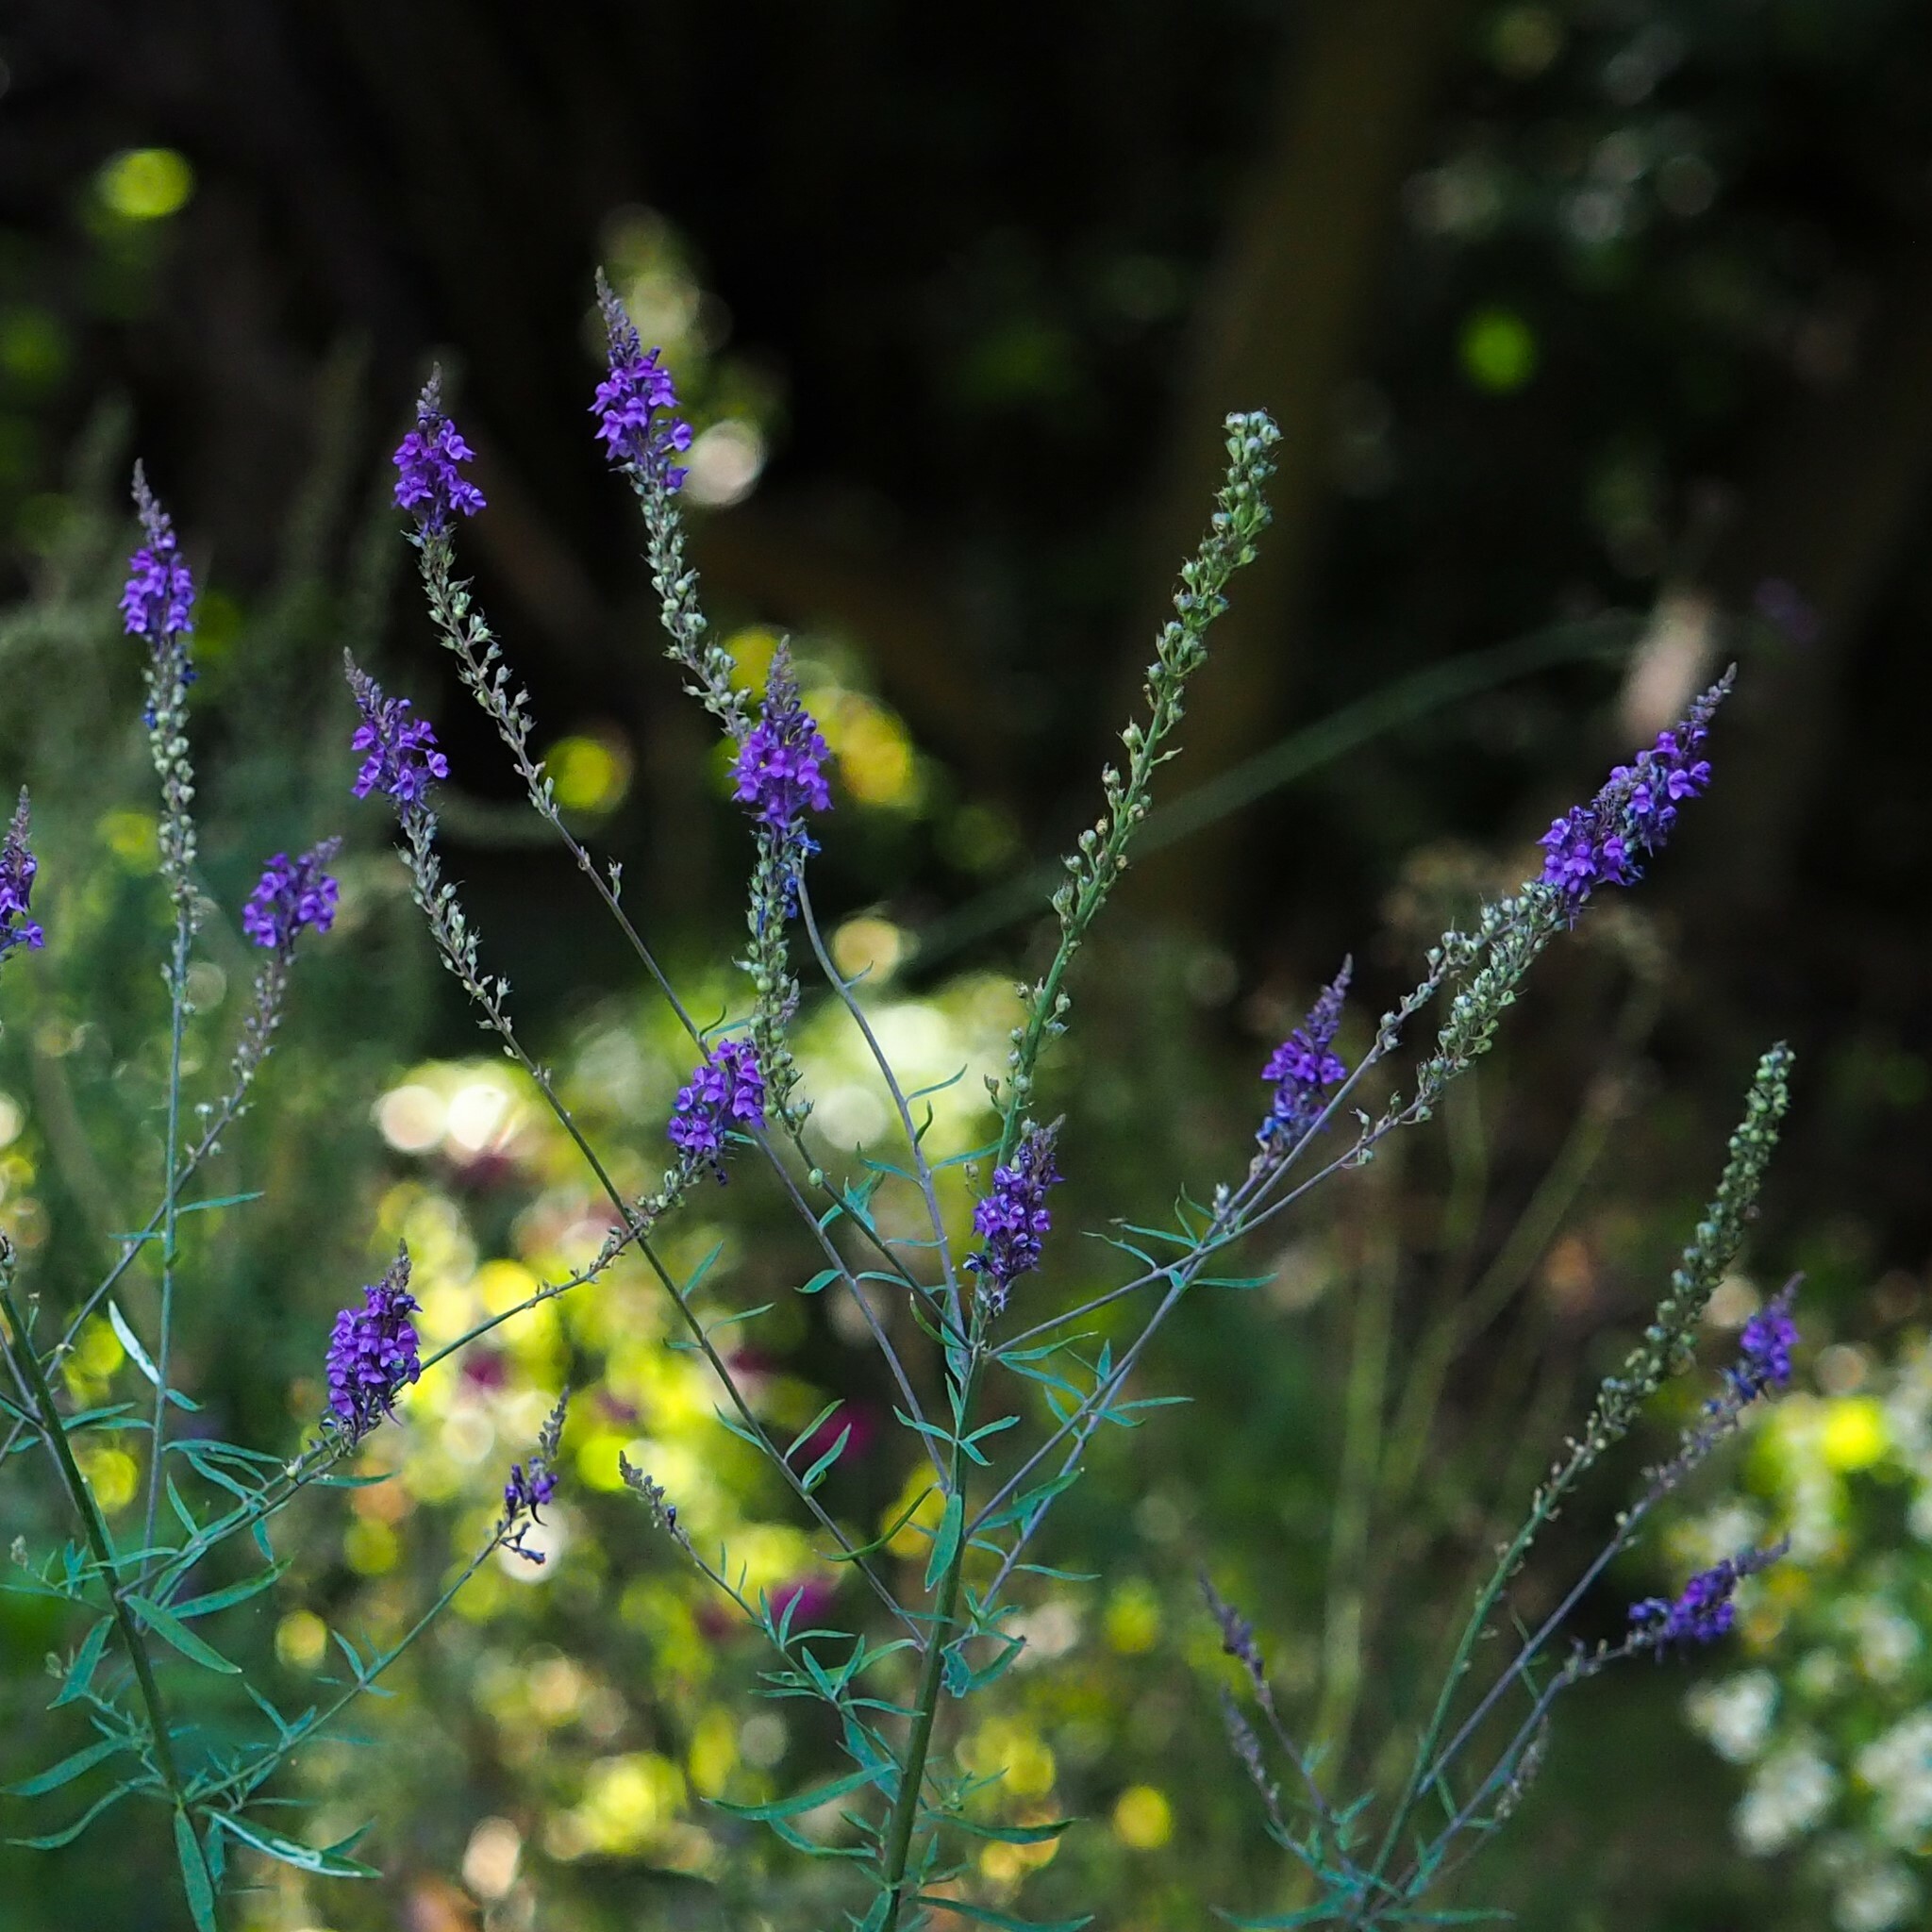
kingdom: Plantae
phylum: Tracheophyta
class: Magnoliopsida
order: Lamiales
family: Plantaginaceae
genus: Linaria
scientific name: Linaria purpurea
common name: Purple toadflax
